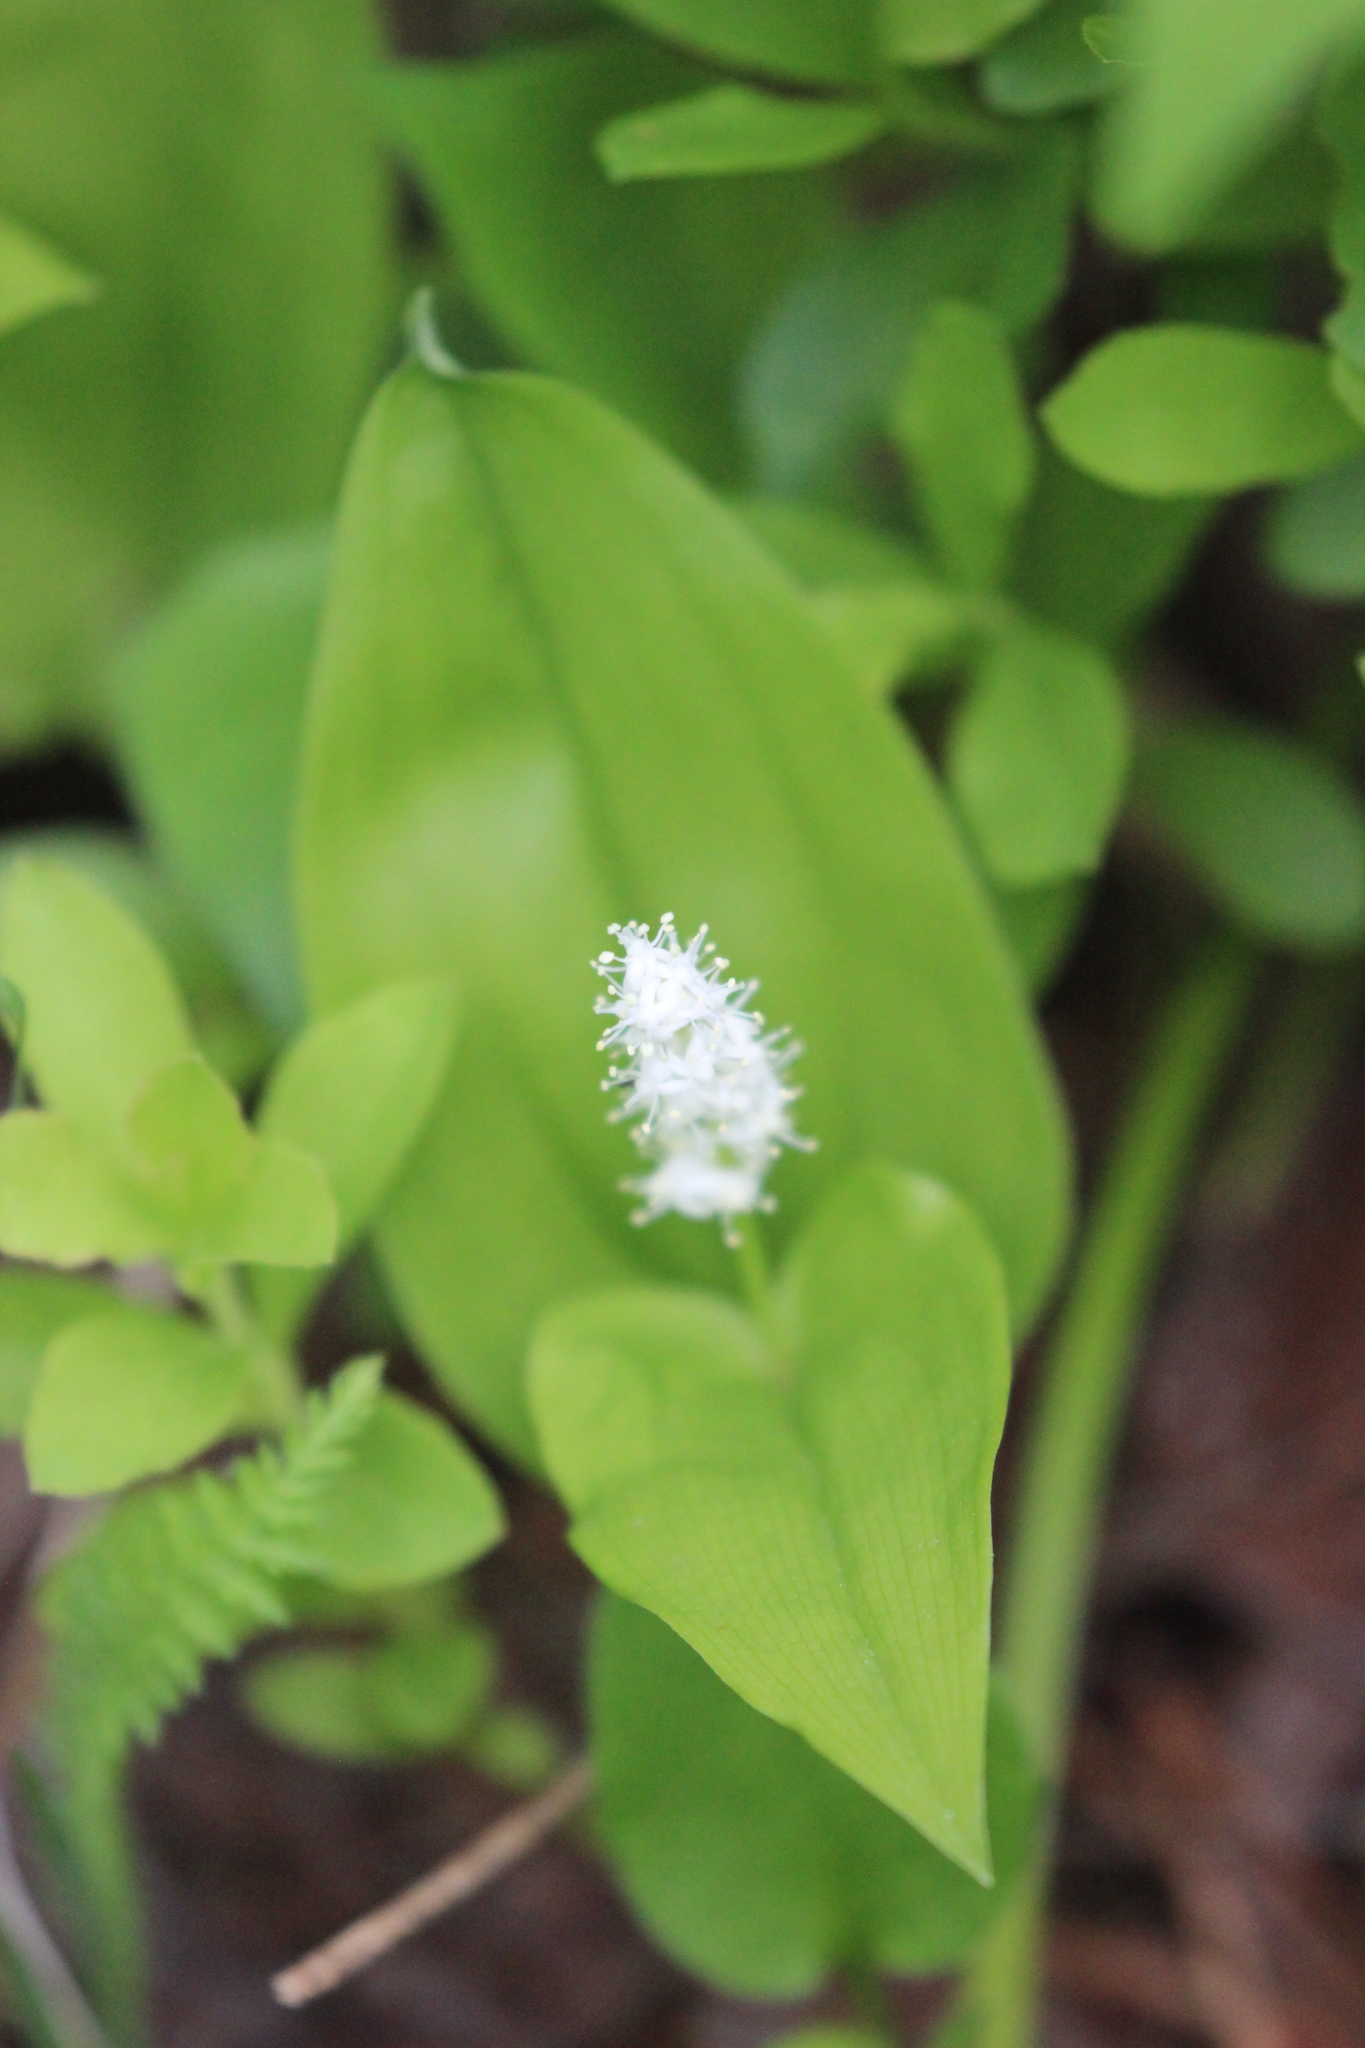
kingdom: Plantae
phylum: Tracheophyta
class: Liliopsida
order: Asparagales
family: Asparagaceae
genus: Maianthemum
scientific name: Maianthemum canadense
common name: False lily-of-the-valley
